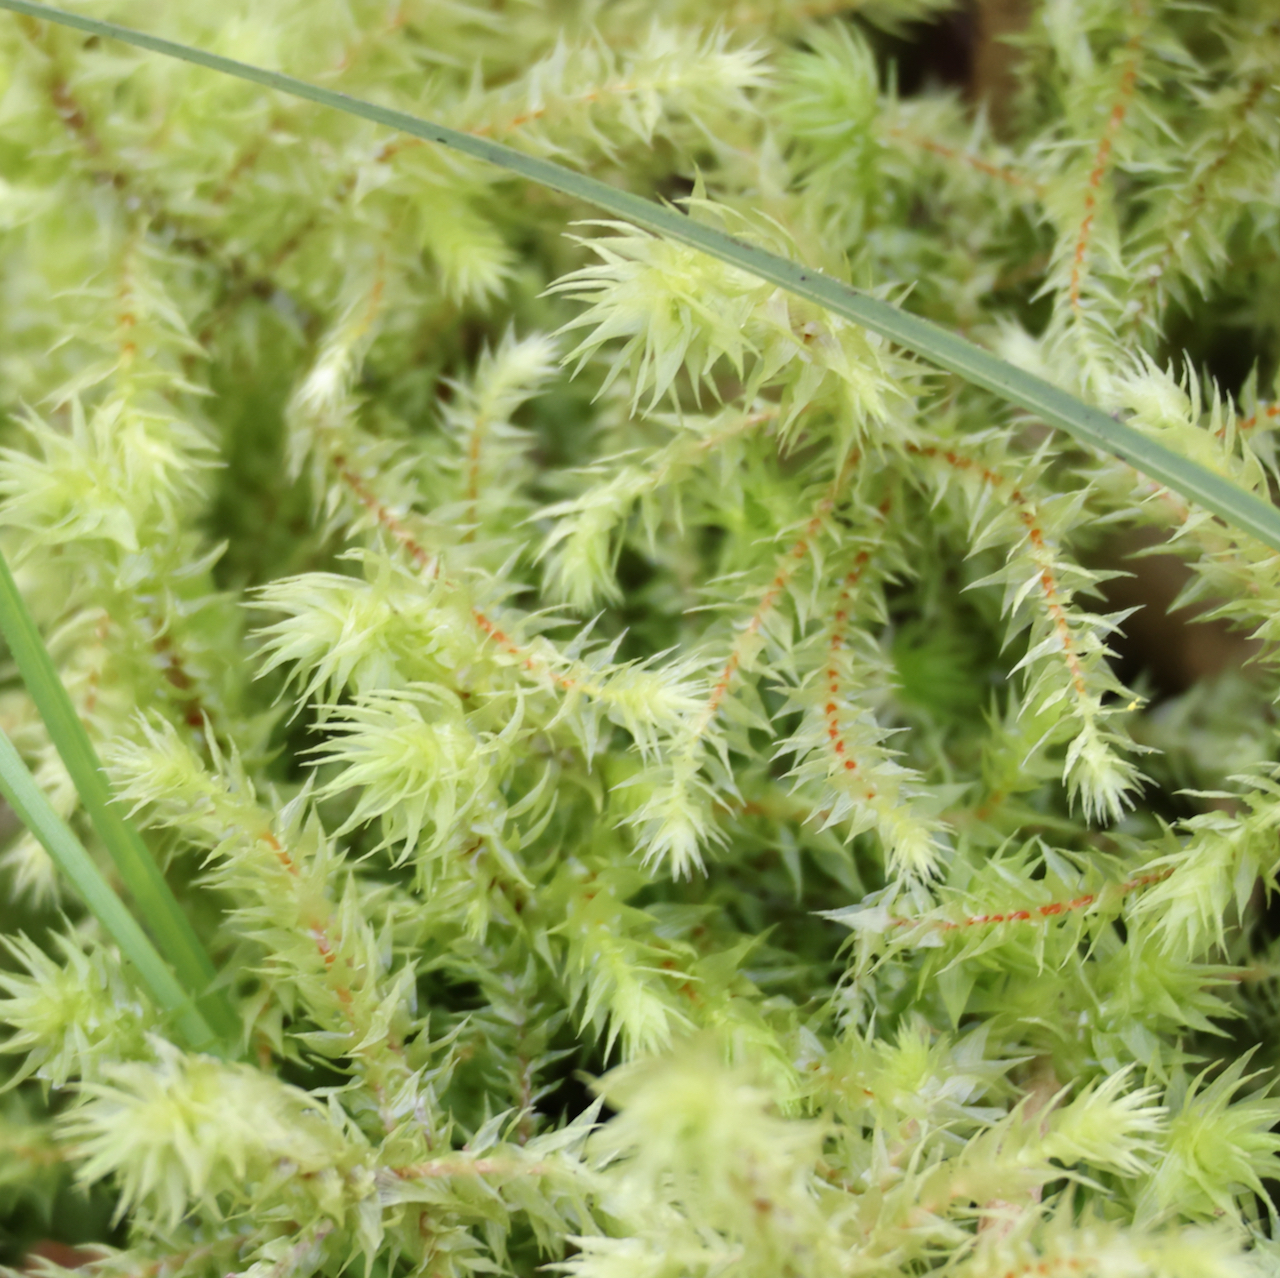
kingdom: Plantae
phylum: Bryophyta
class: Bryopsida
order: Hypnales
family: Hylocomiaceae
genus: Hylocomiadelphus
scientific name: Hylocomiadelphus triquetrus
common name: Rough goose neck moss
